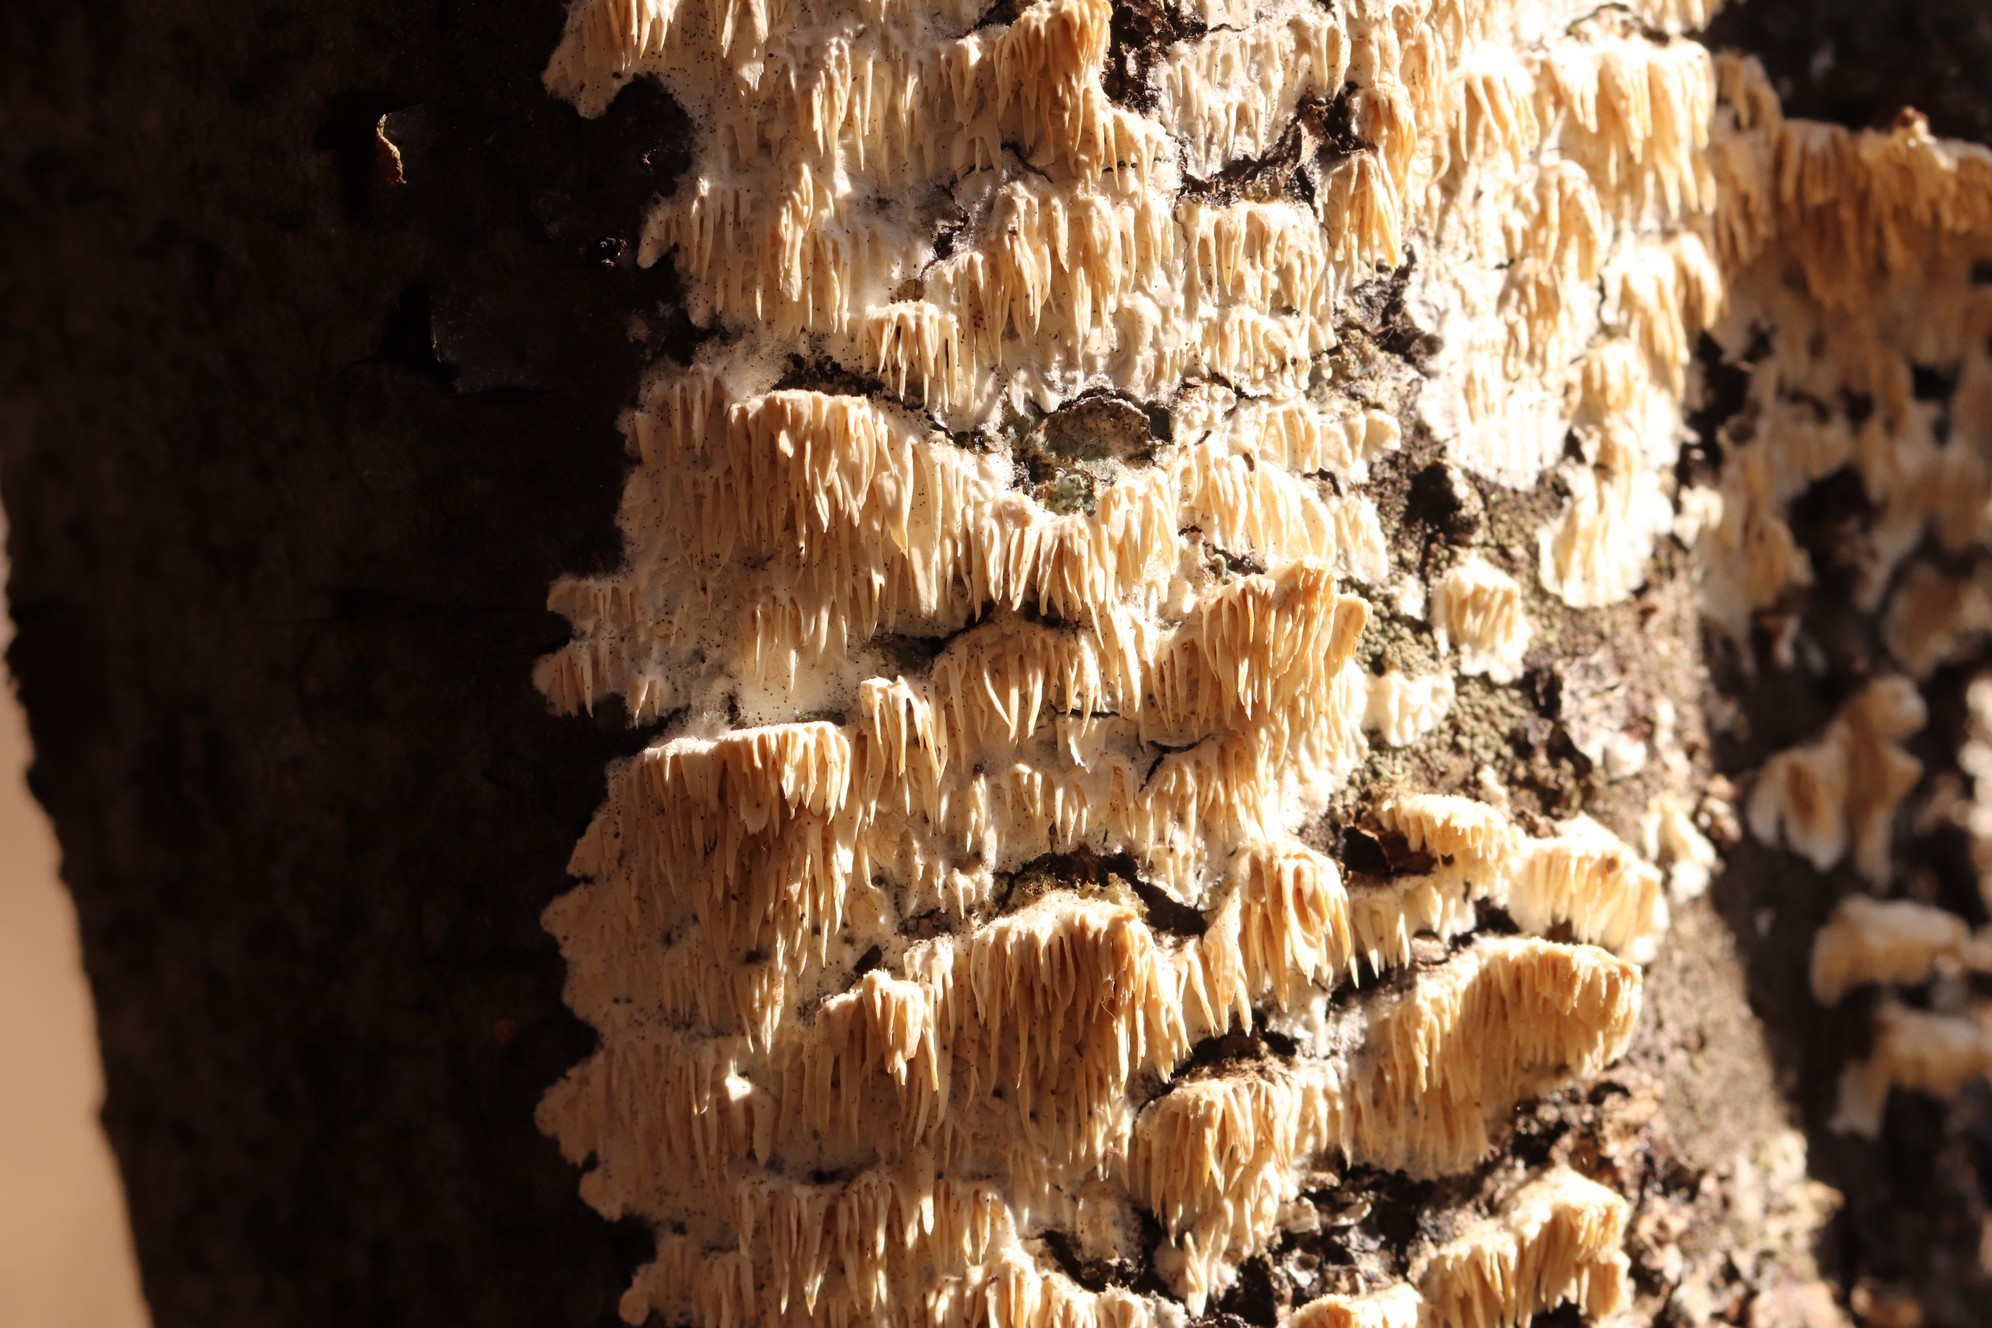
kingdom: Fungi
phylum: Basidiomycota
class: Agaricomycetes
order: Polyporales
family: Irpicaceae
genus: Irpex
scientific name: Irpex lacteus
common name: Milk-white toothed polypore
